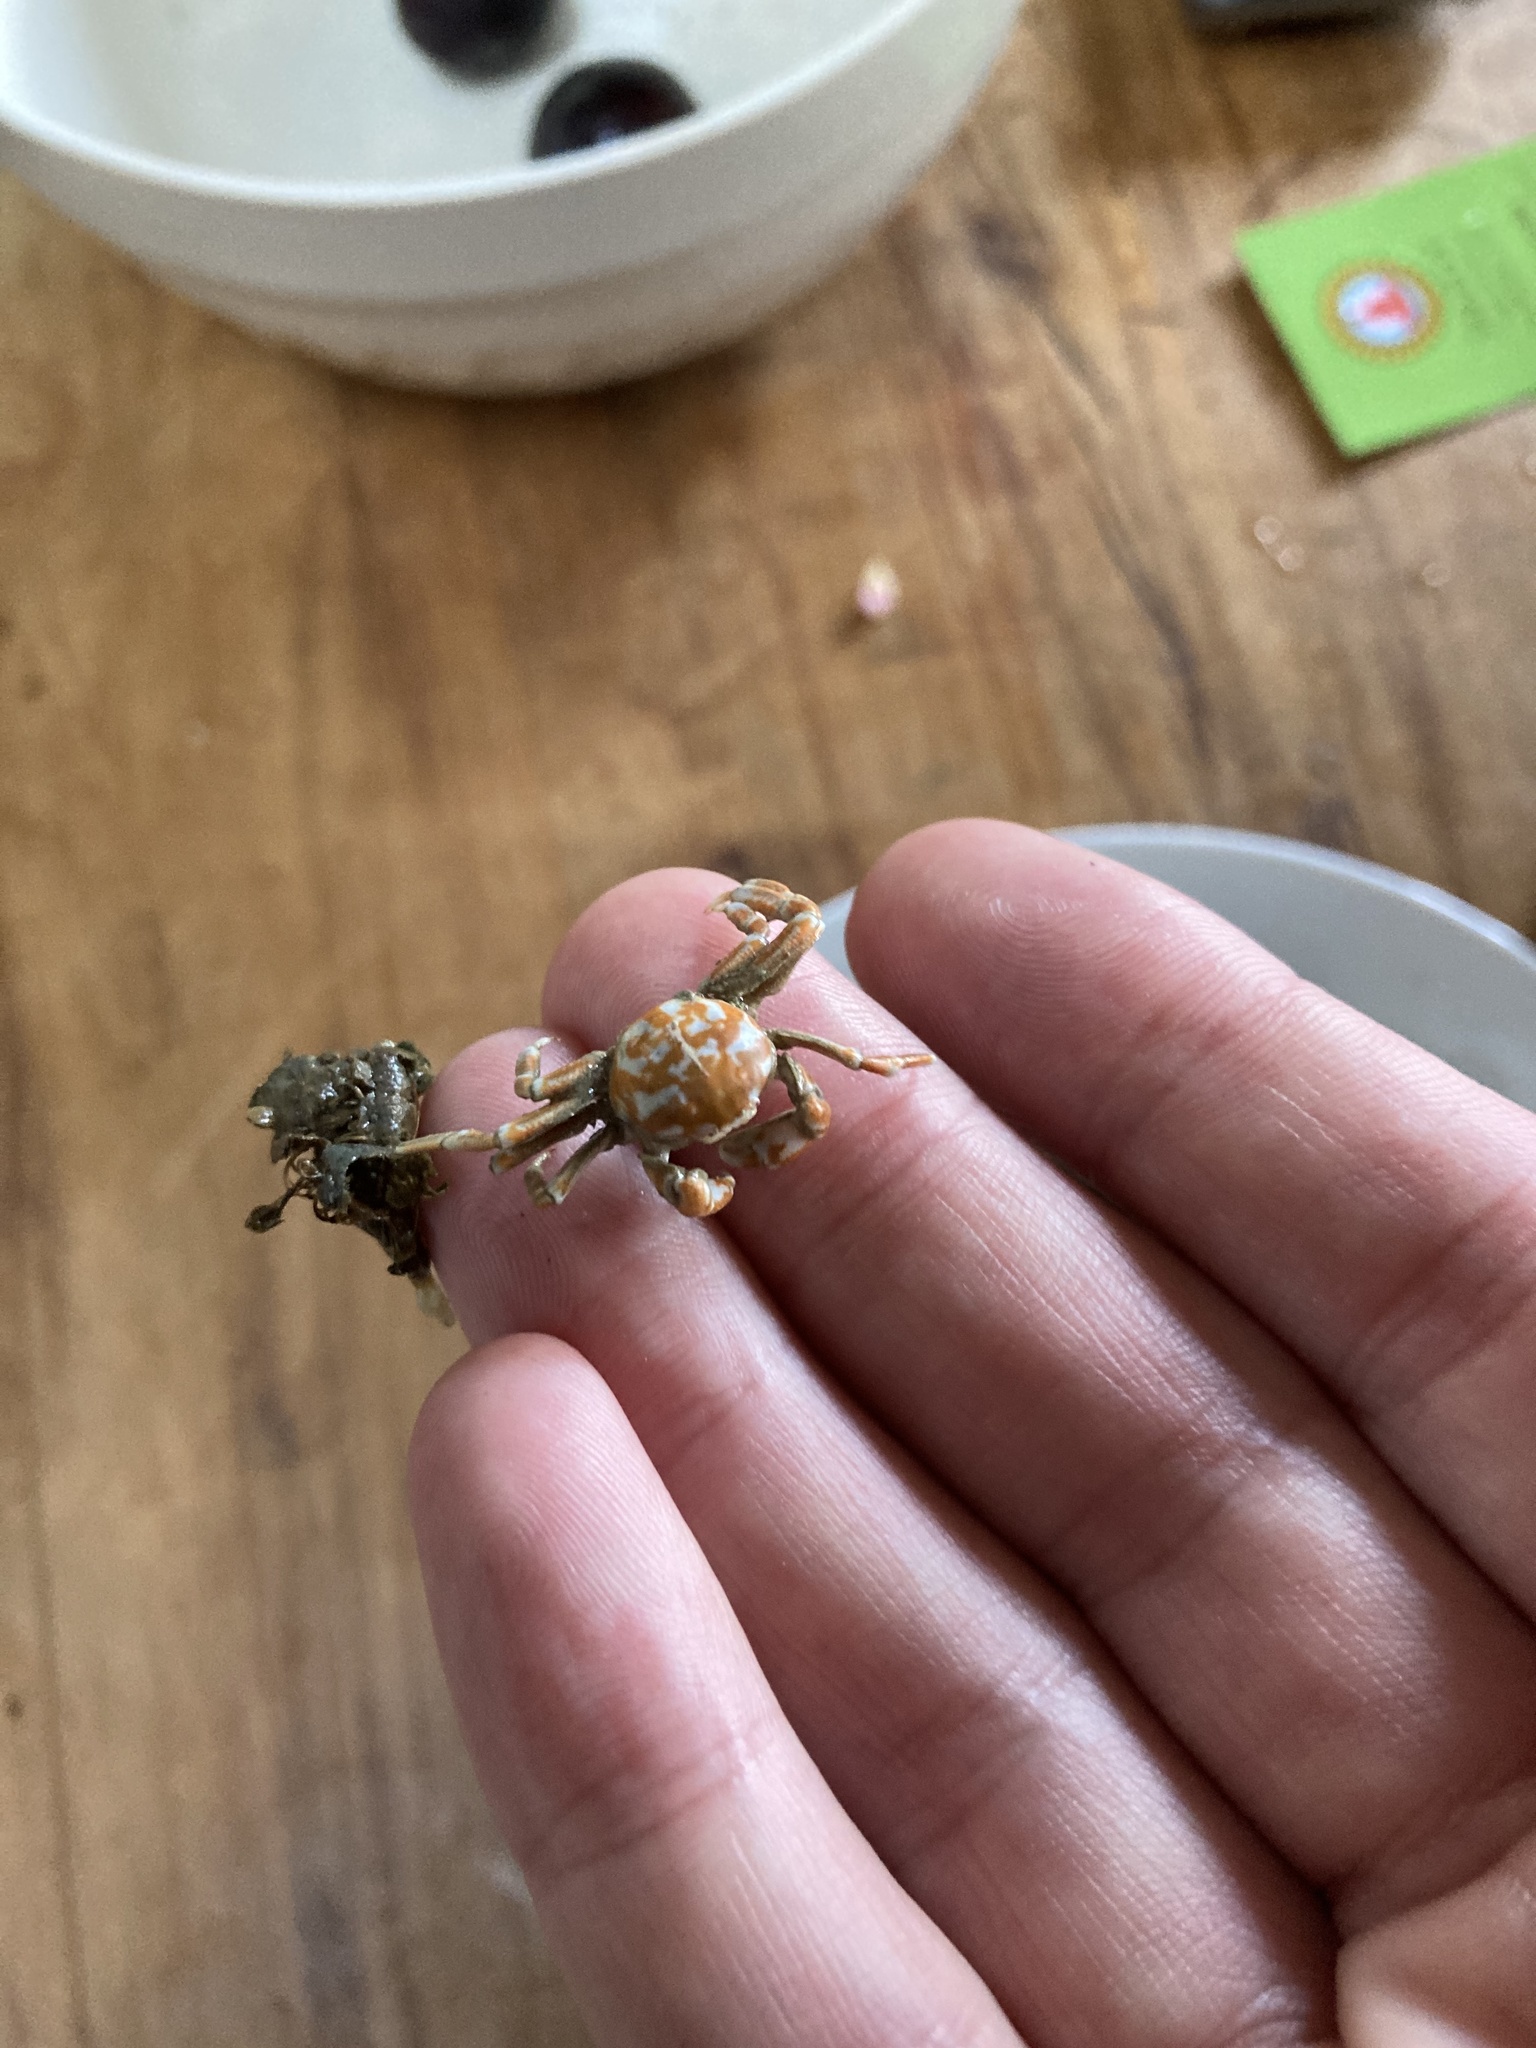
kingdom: Animalia
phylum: Arthropoda
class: Malacostraca
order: Decapoda
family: Pinnotheridae
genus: Nepinnotheres
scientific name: Nepinnotheres novaezelandiae
